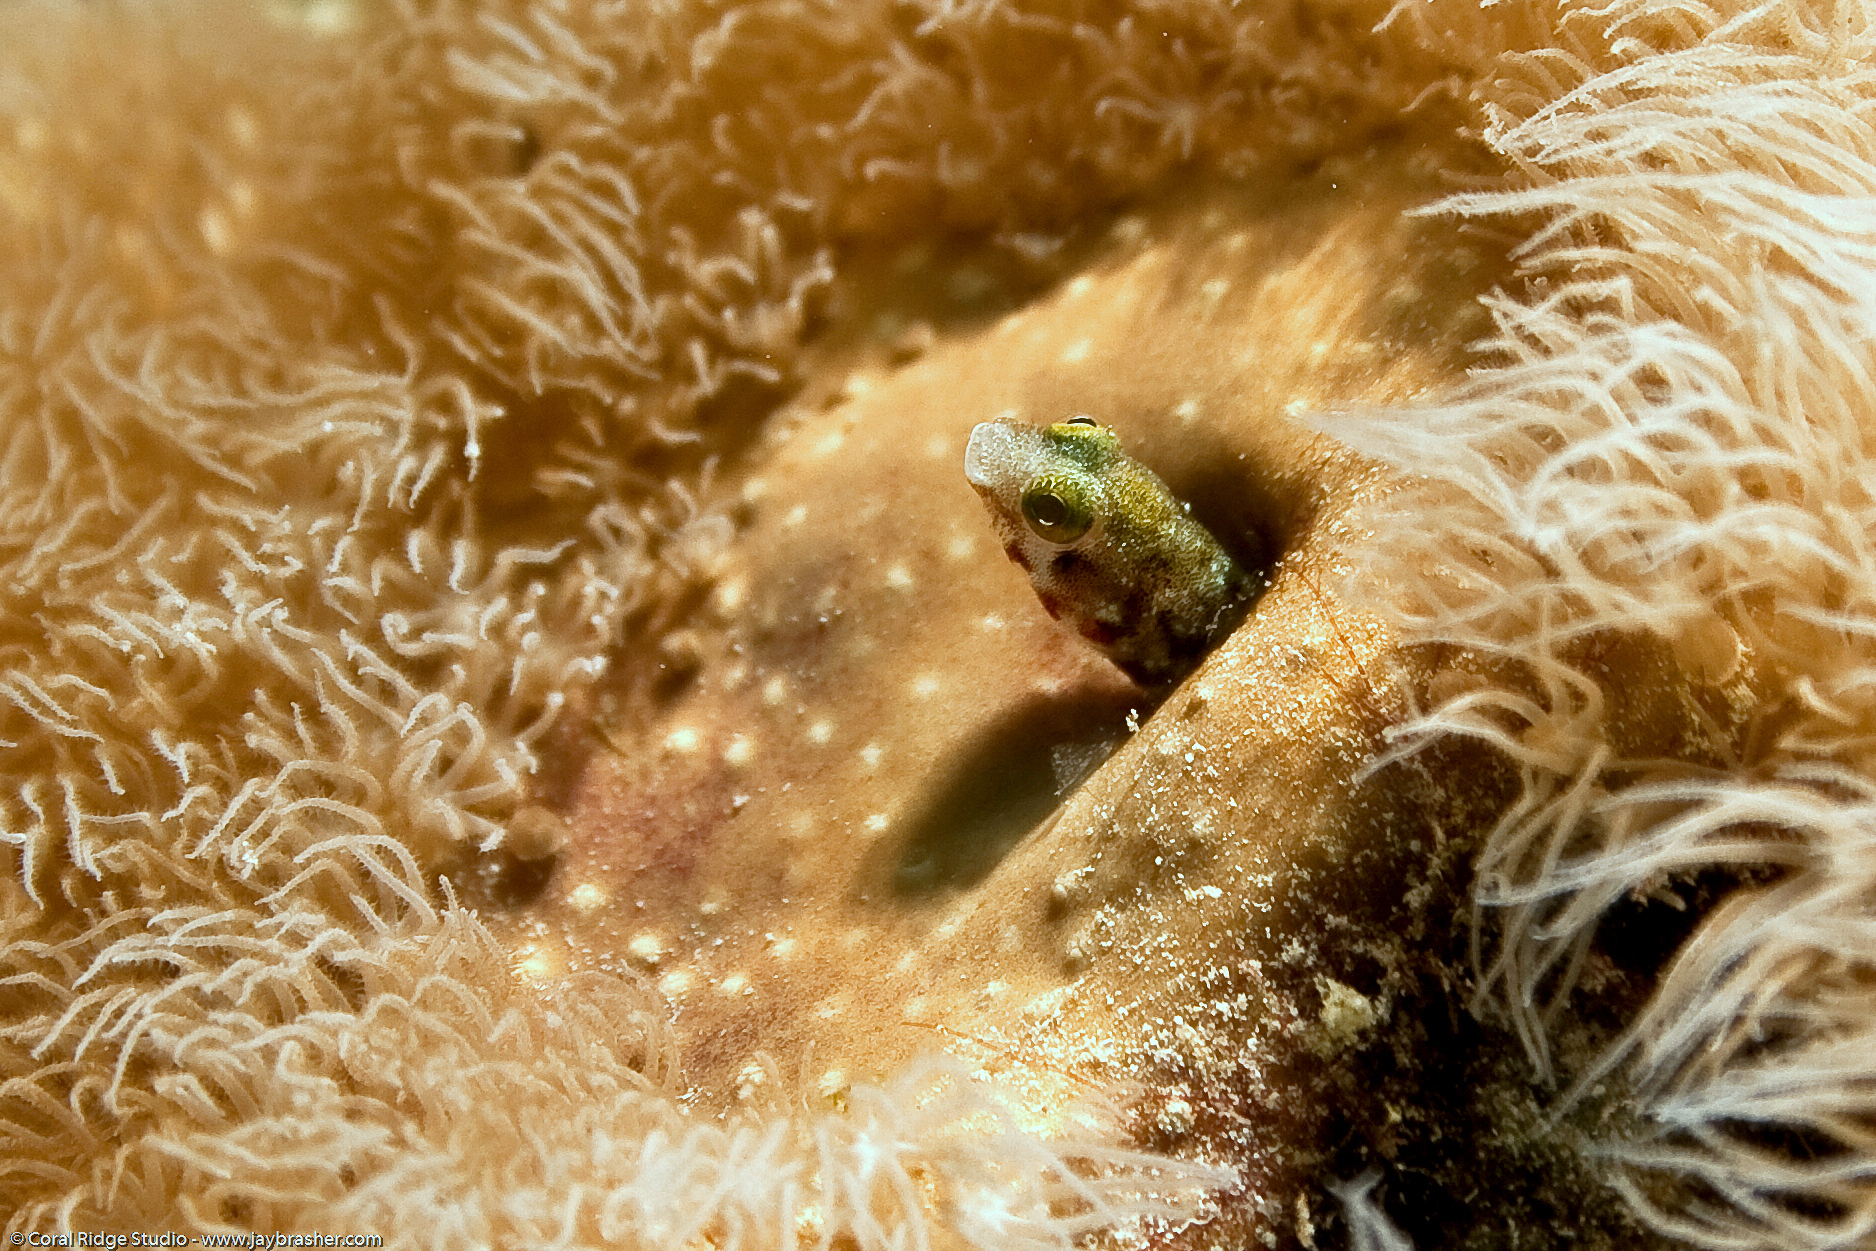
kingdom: Animalia
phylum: Chordata
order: Perciformes
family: Chaenopsidae
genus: Acanthemblemaria
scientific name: Acanthemblemaria spinosa
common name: Spinyhead blenny
